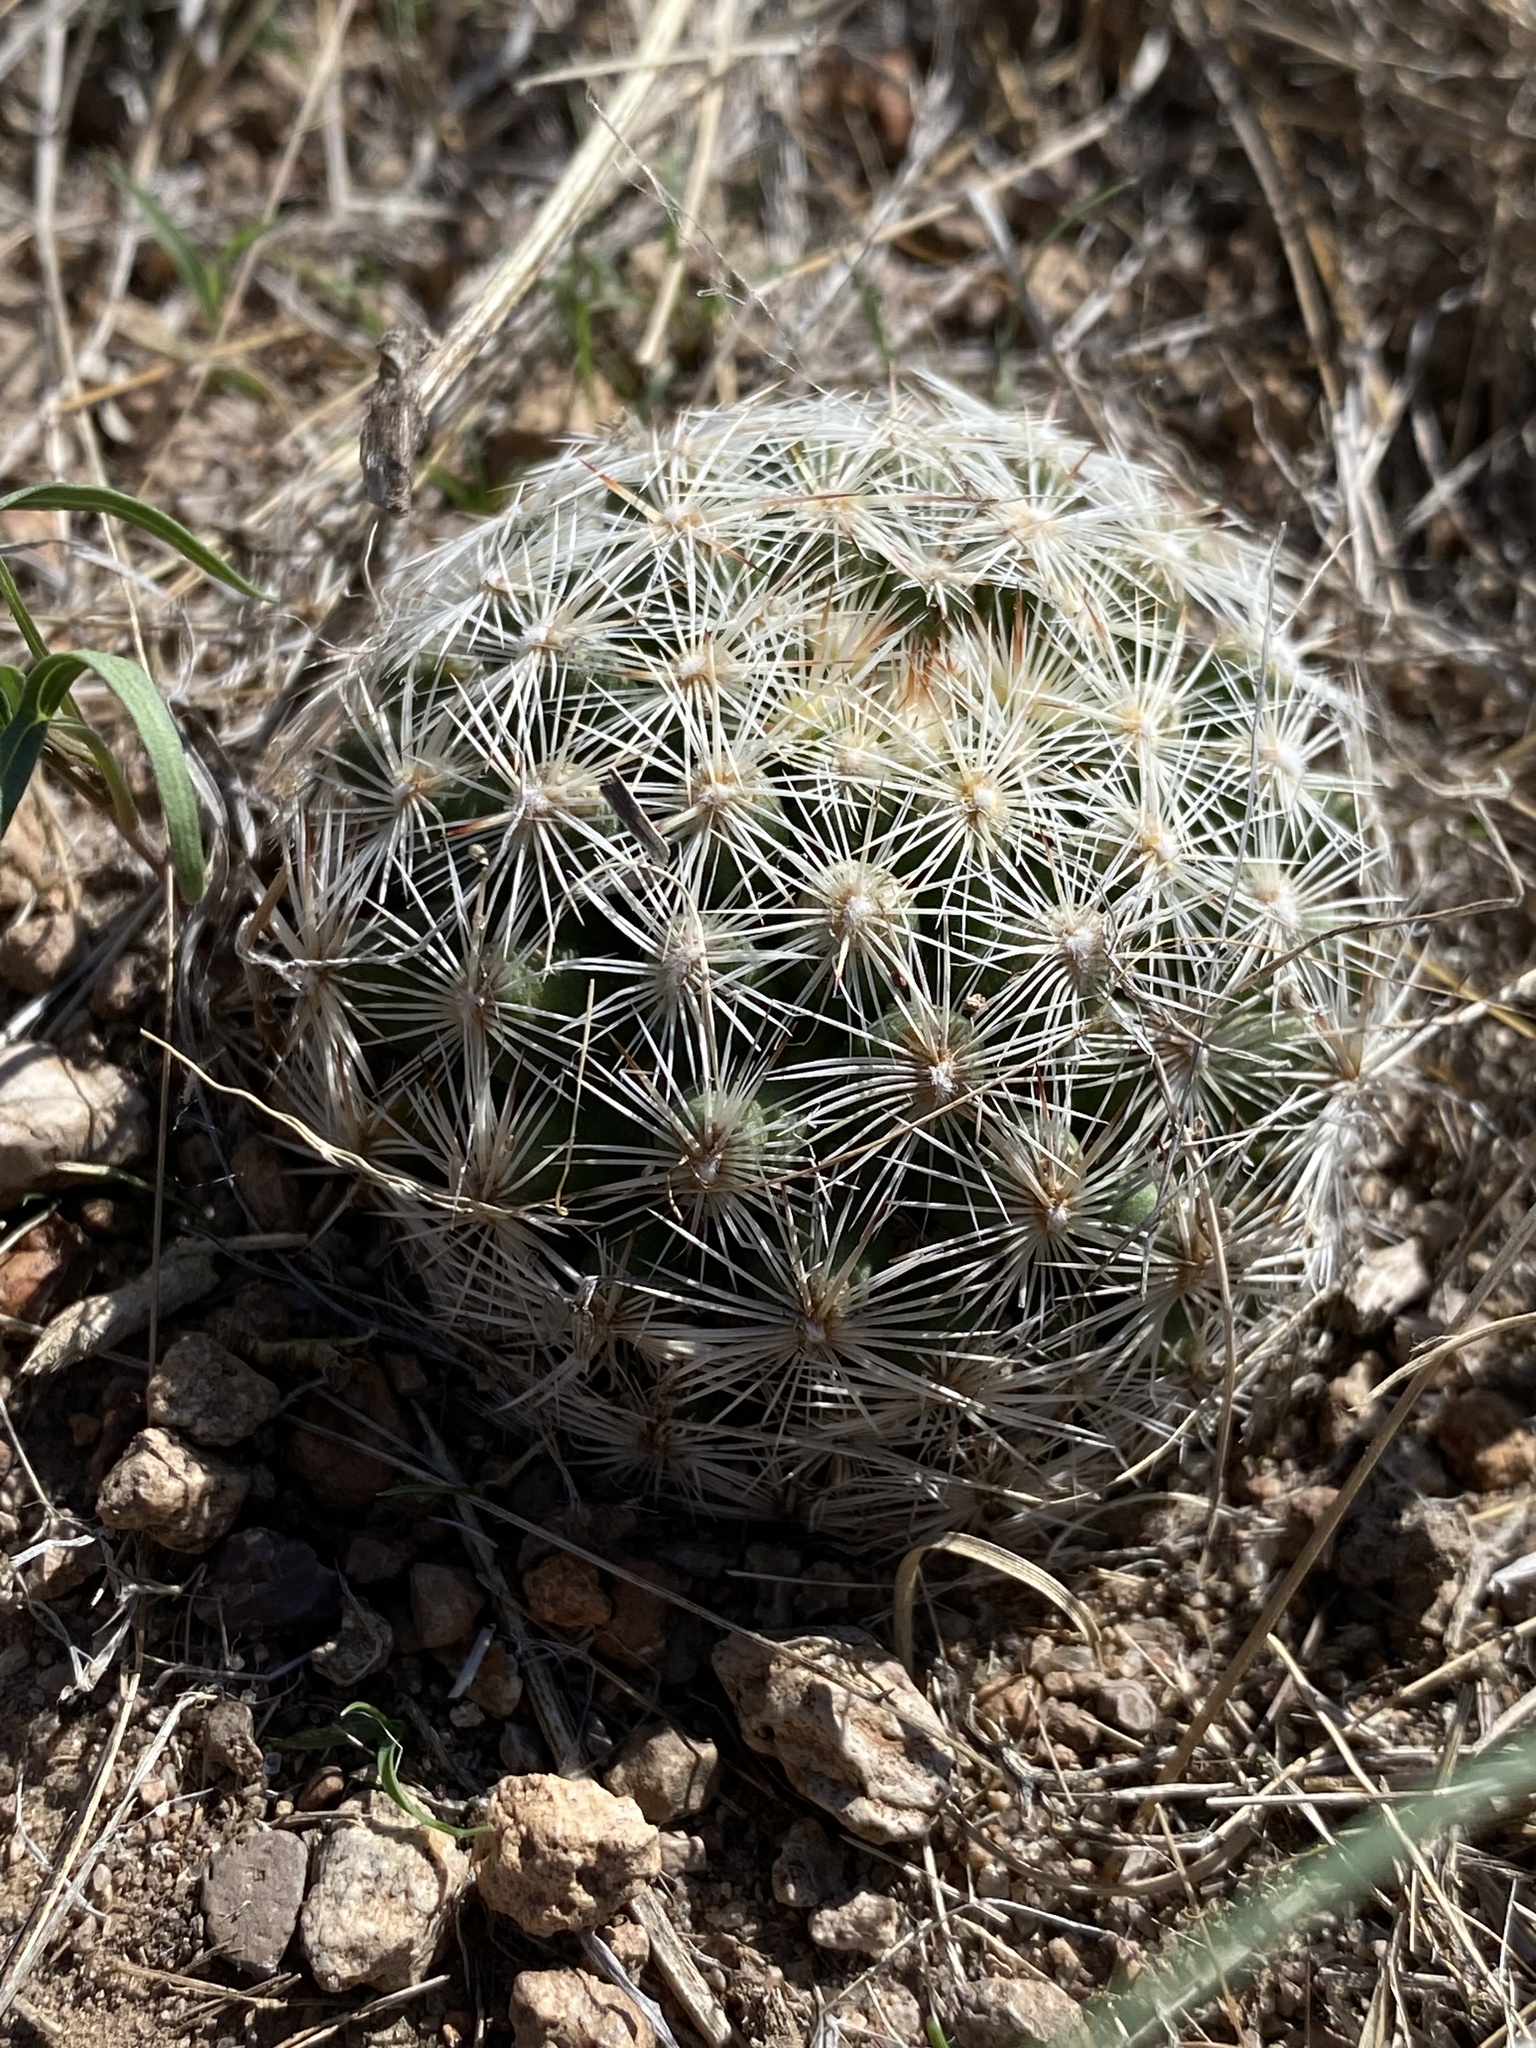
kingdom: Plantae
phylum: Tracheophyta
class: Magnoliopsida
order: Caryophyllales
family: Cactaceae
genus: Pelecyphora
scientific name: Pelecyphora vivipara
